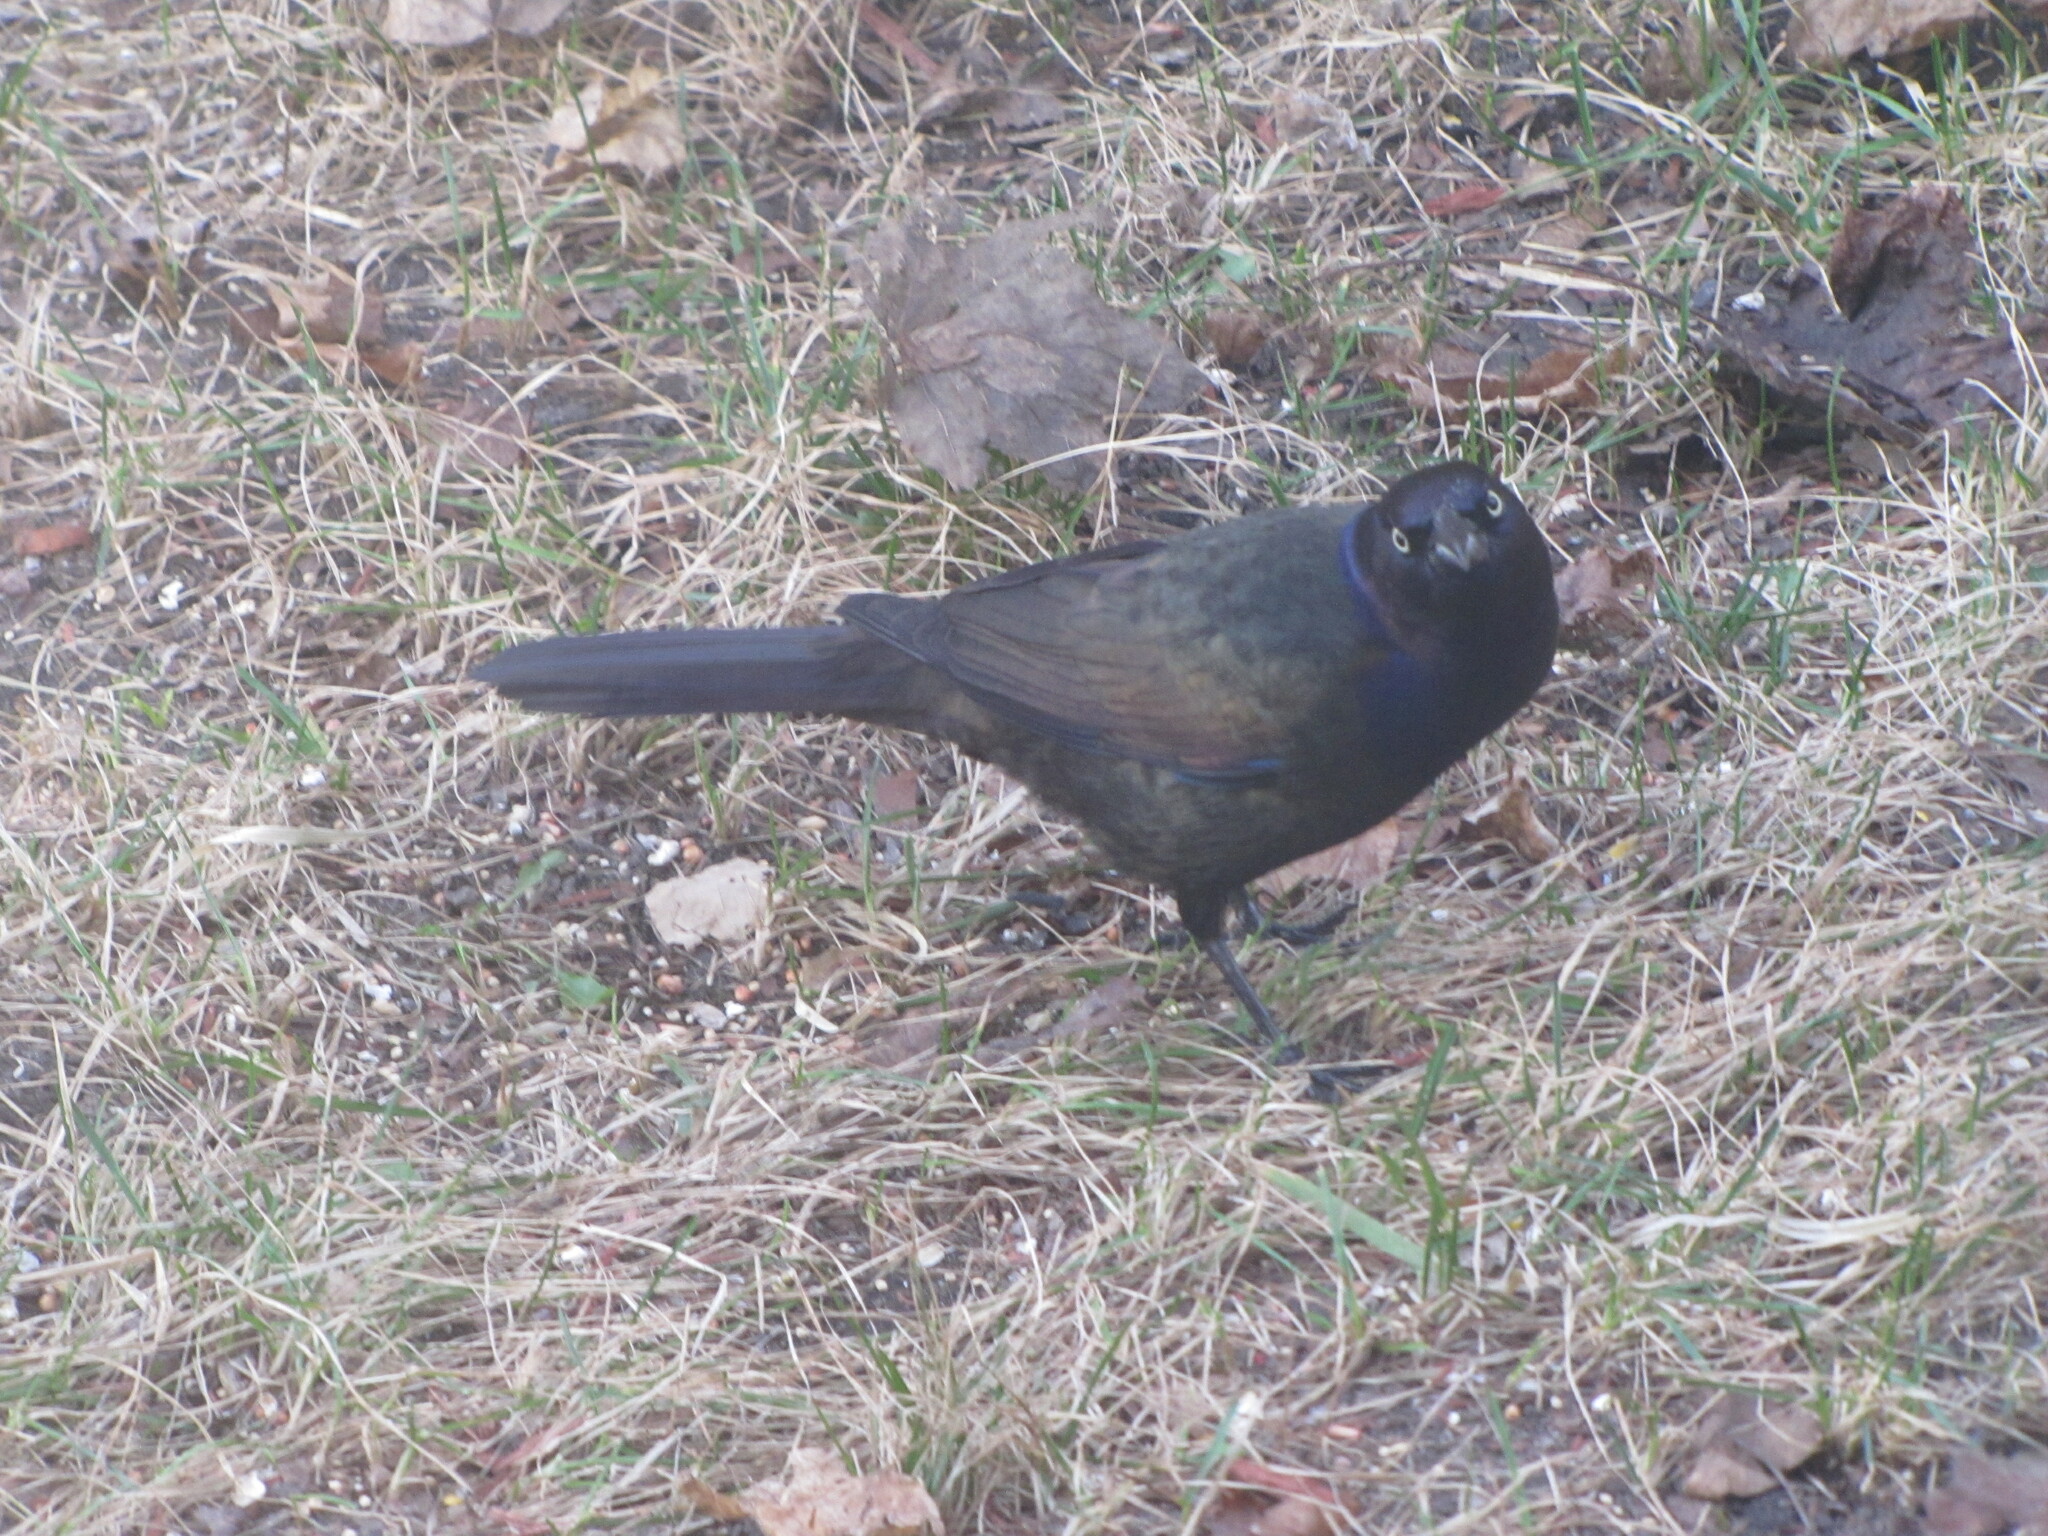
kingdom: Animalia
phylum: Chordata
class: Aves
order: Passeriformes
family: Icteridae
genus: Quiscalus
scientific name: Quiscalus quiscula
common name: Common grackle
